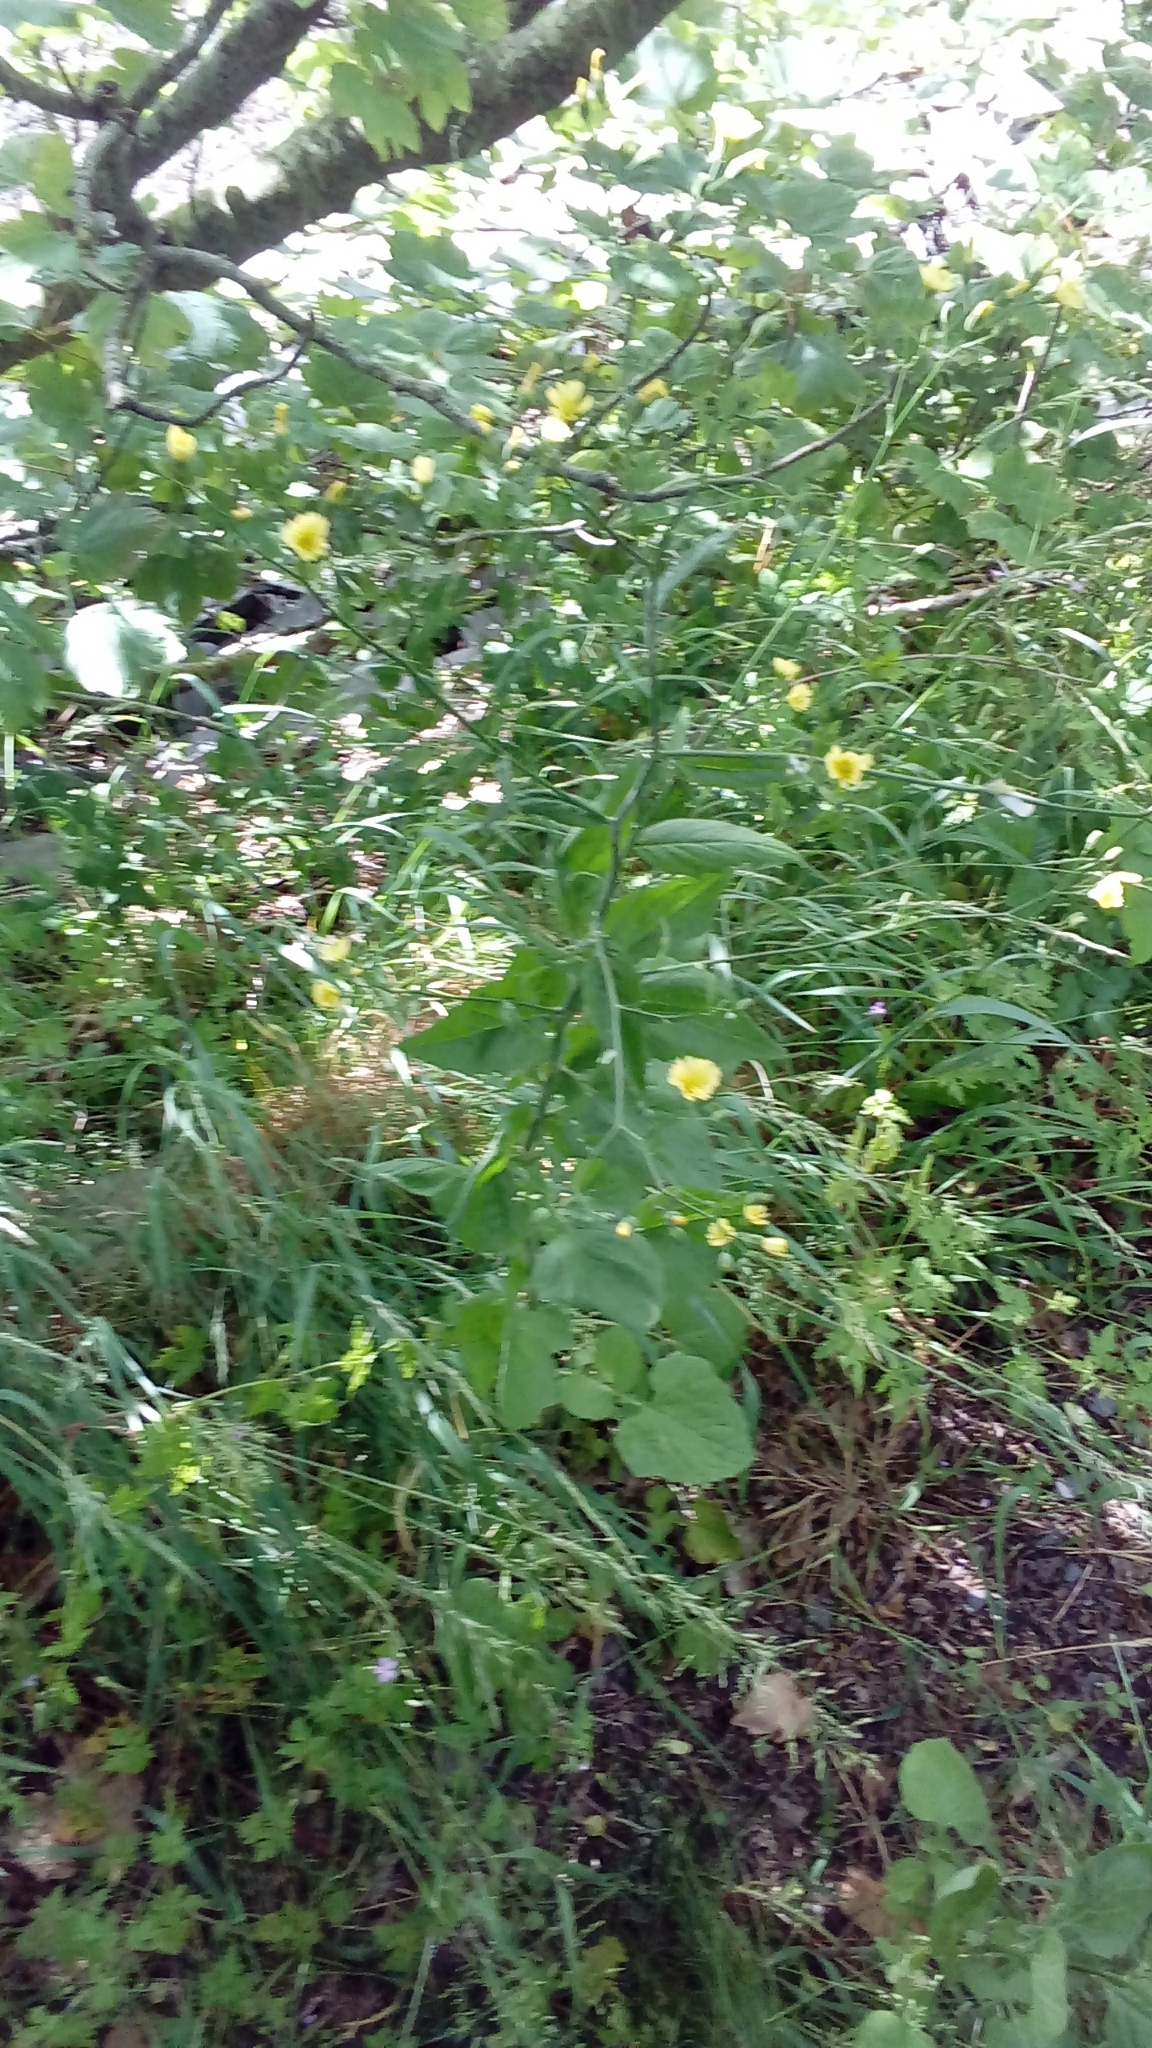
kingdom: Plantae
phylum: Tracheophyta
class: Magnoliopsida
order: Asterales
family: Asteraceae
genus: Lapsana
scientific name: Lapsana communis
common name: Nipplewort
